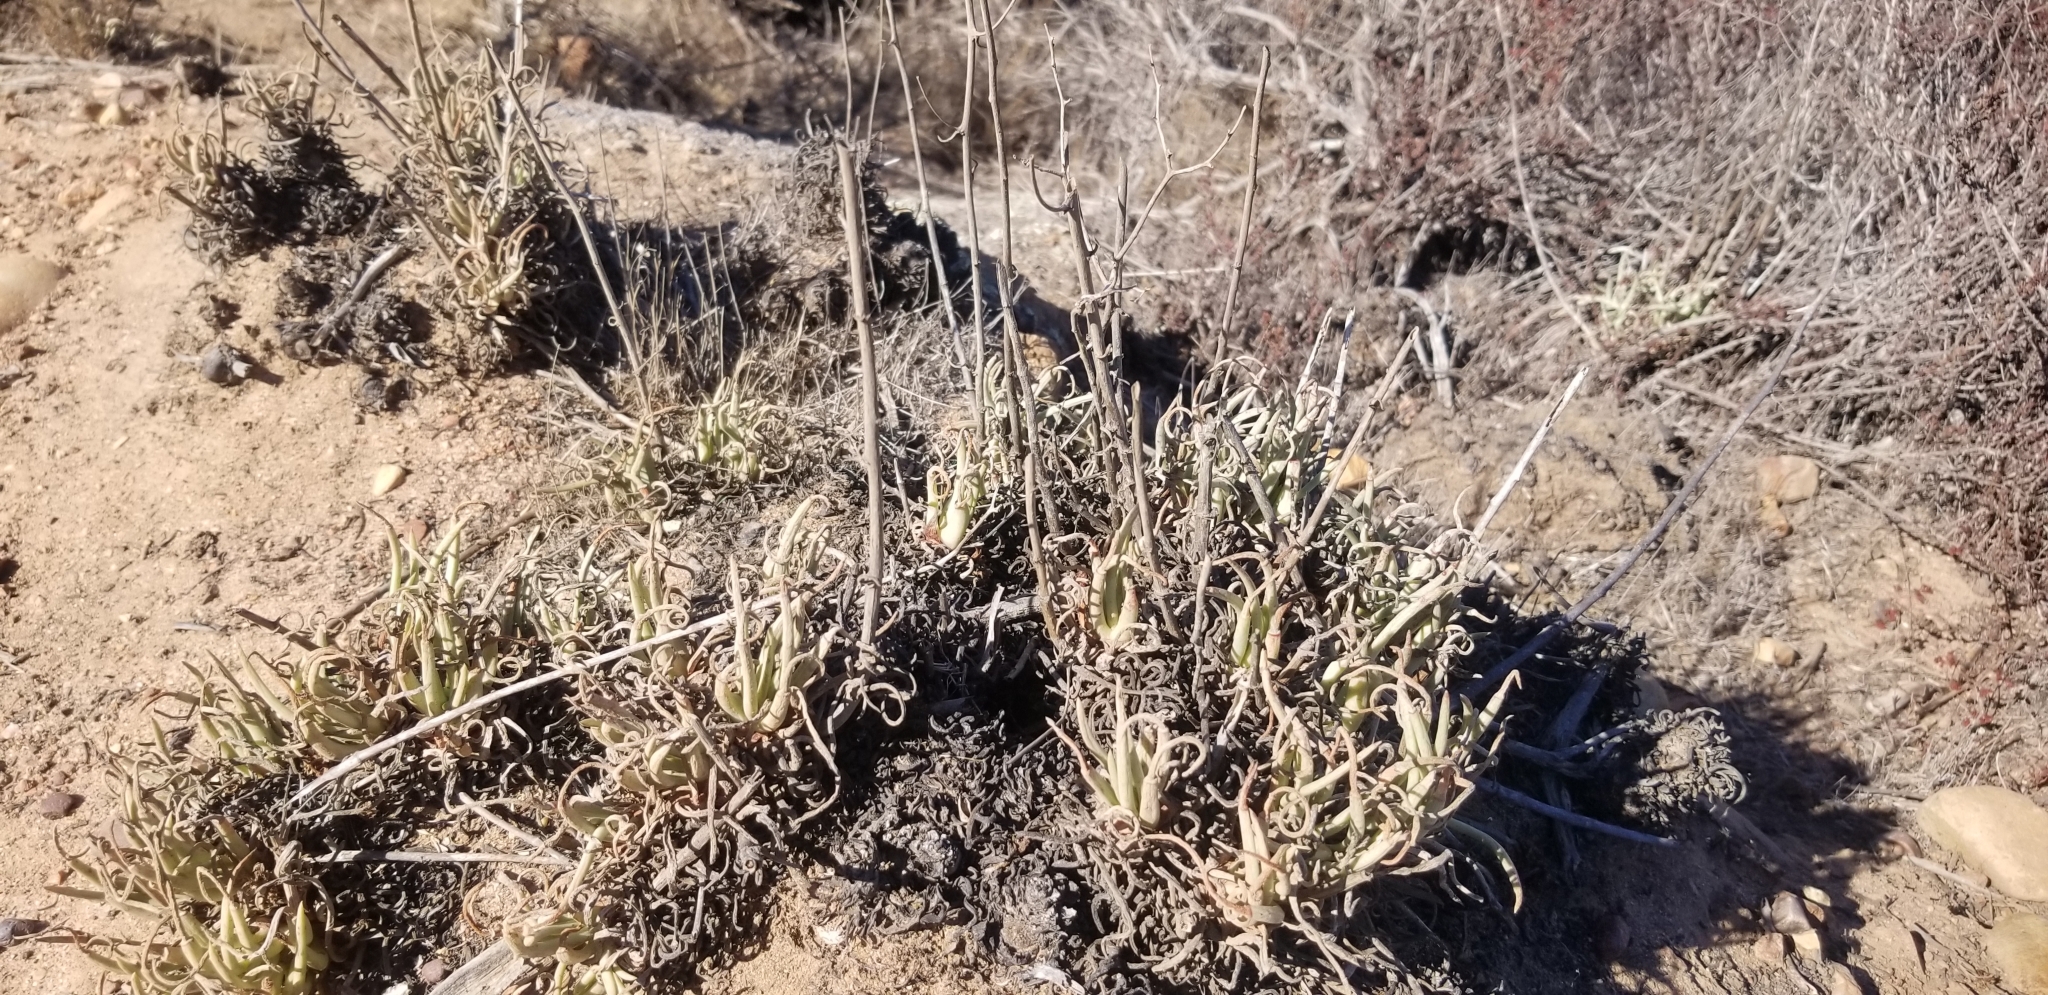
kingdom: Plantae
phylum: Tracheophyta
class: Magnoliopsida
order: Saxifragales
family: Crassulaceae
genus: Dudleya
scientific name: Dudleya edulis
